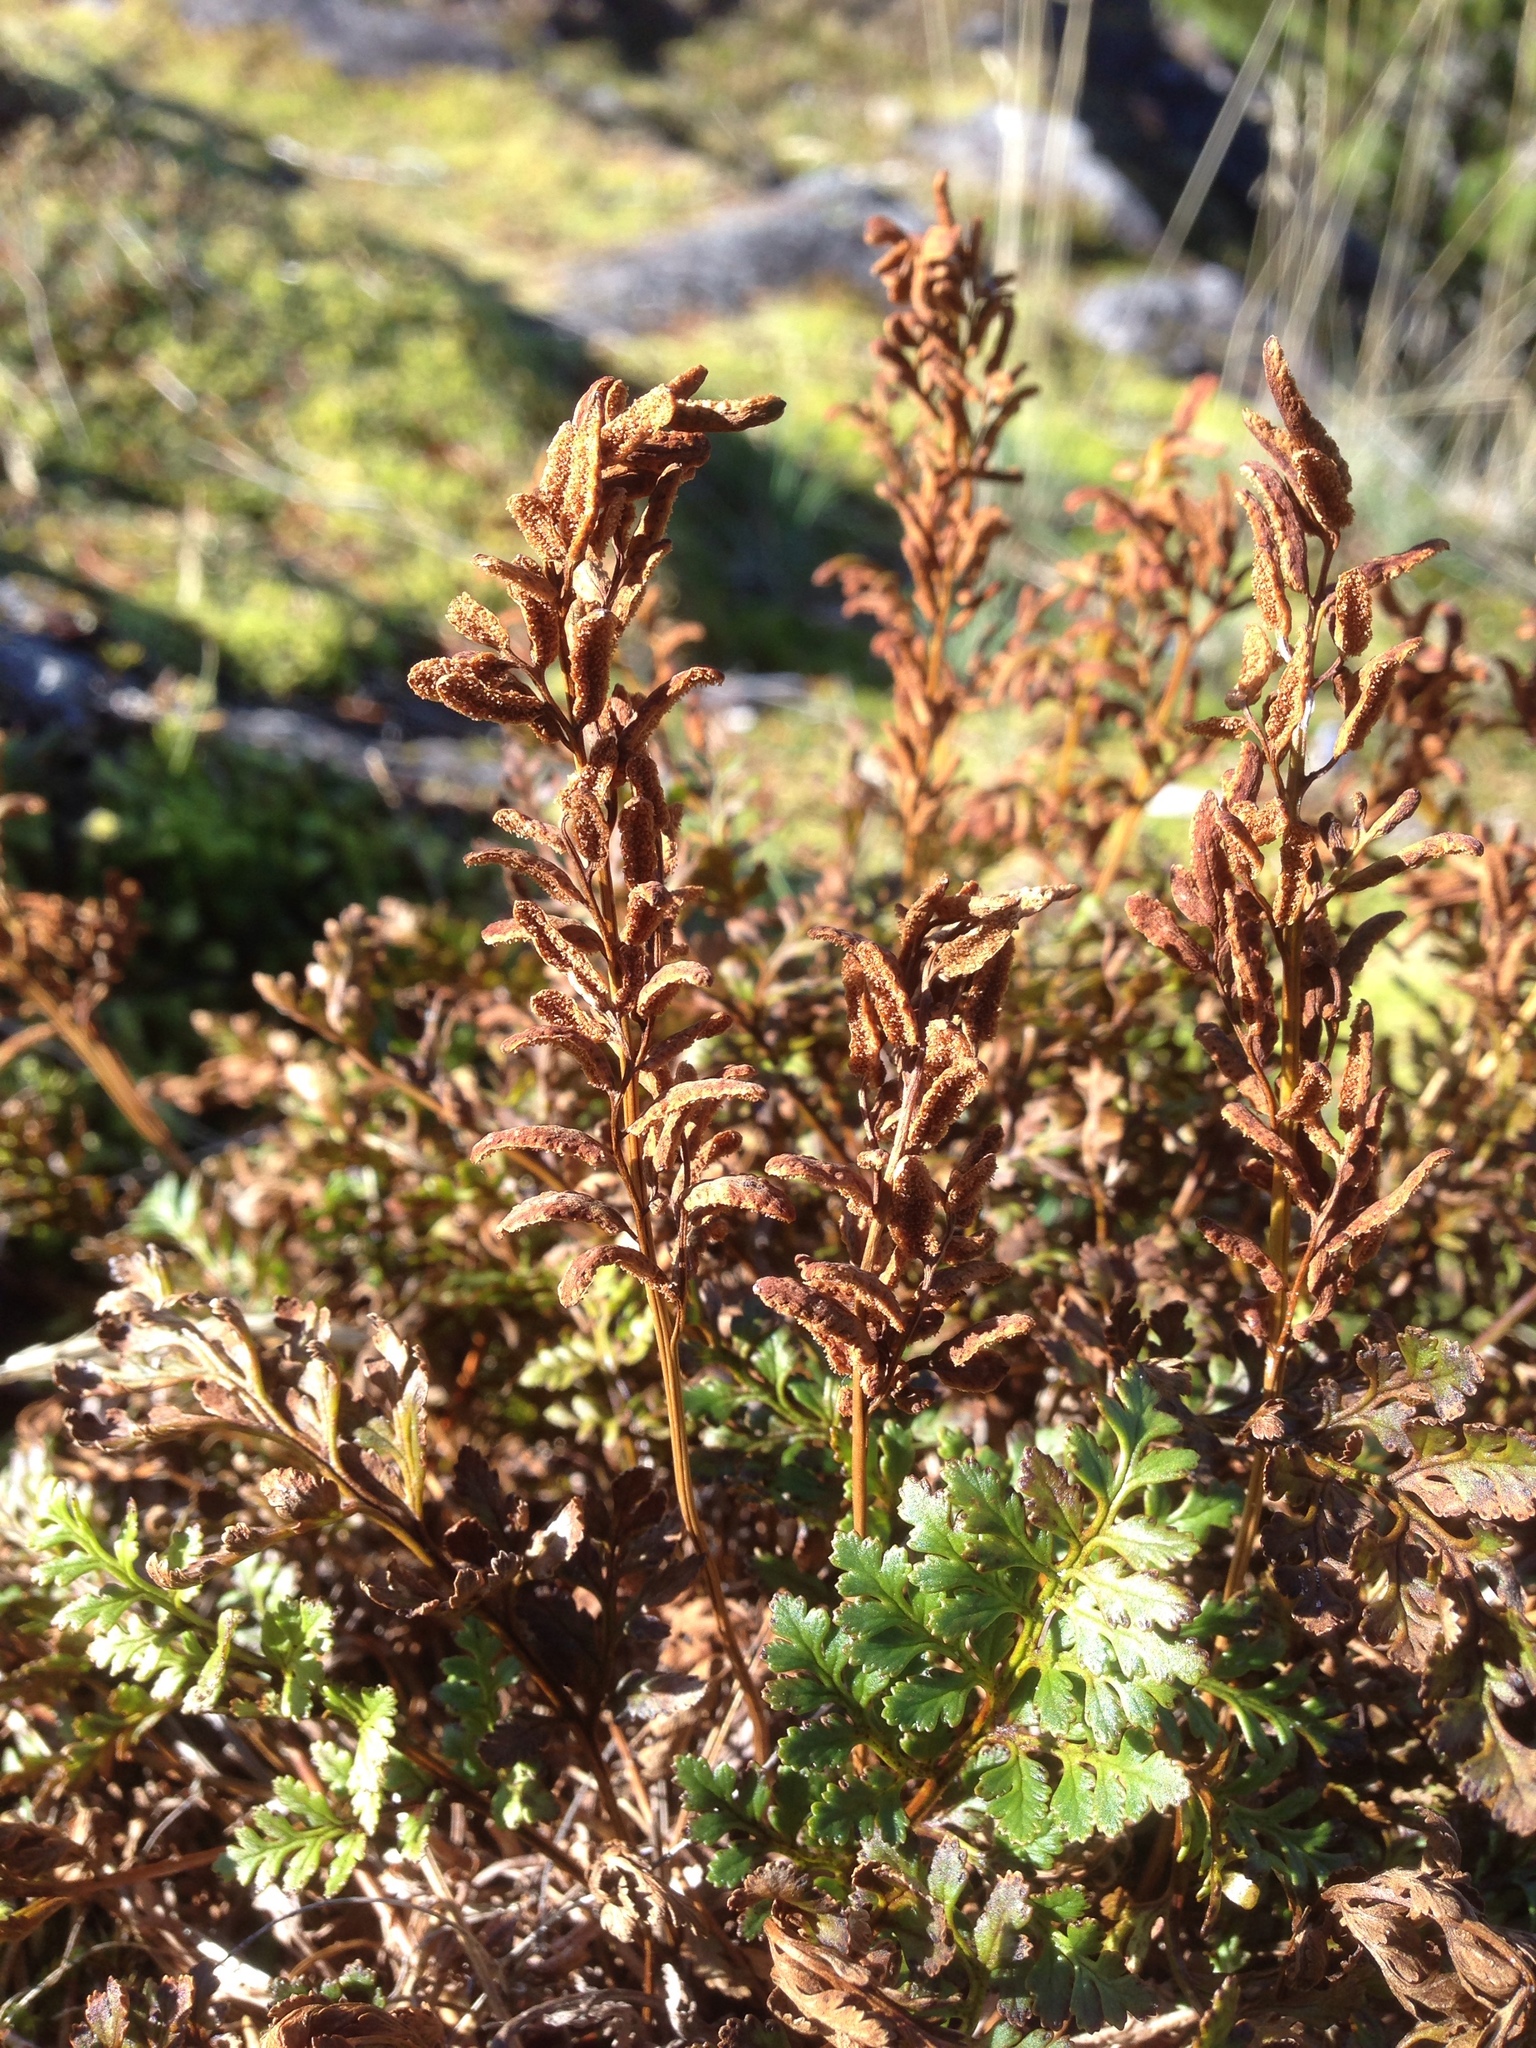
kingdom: Plantae
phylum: Tracheophyta
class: Polypodiopsida
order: Polypodiales
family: Pteridaceae
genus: Cryptogramma
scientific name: Cryptogramma acrostichoides
